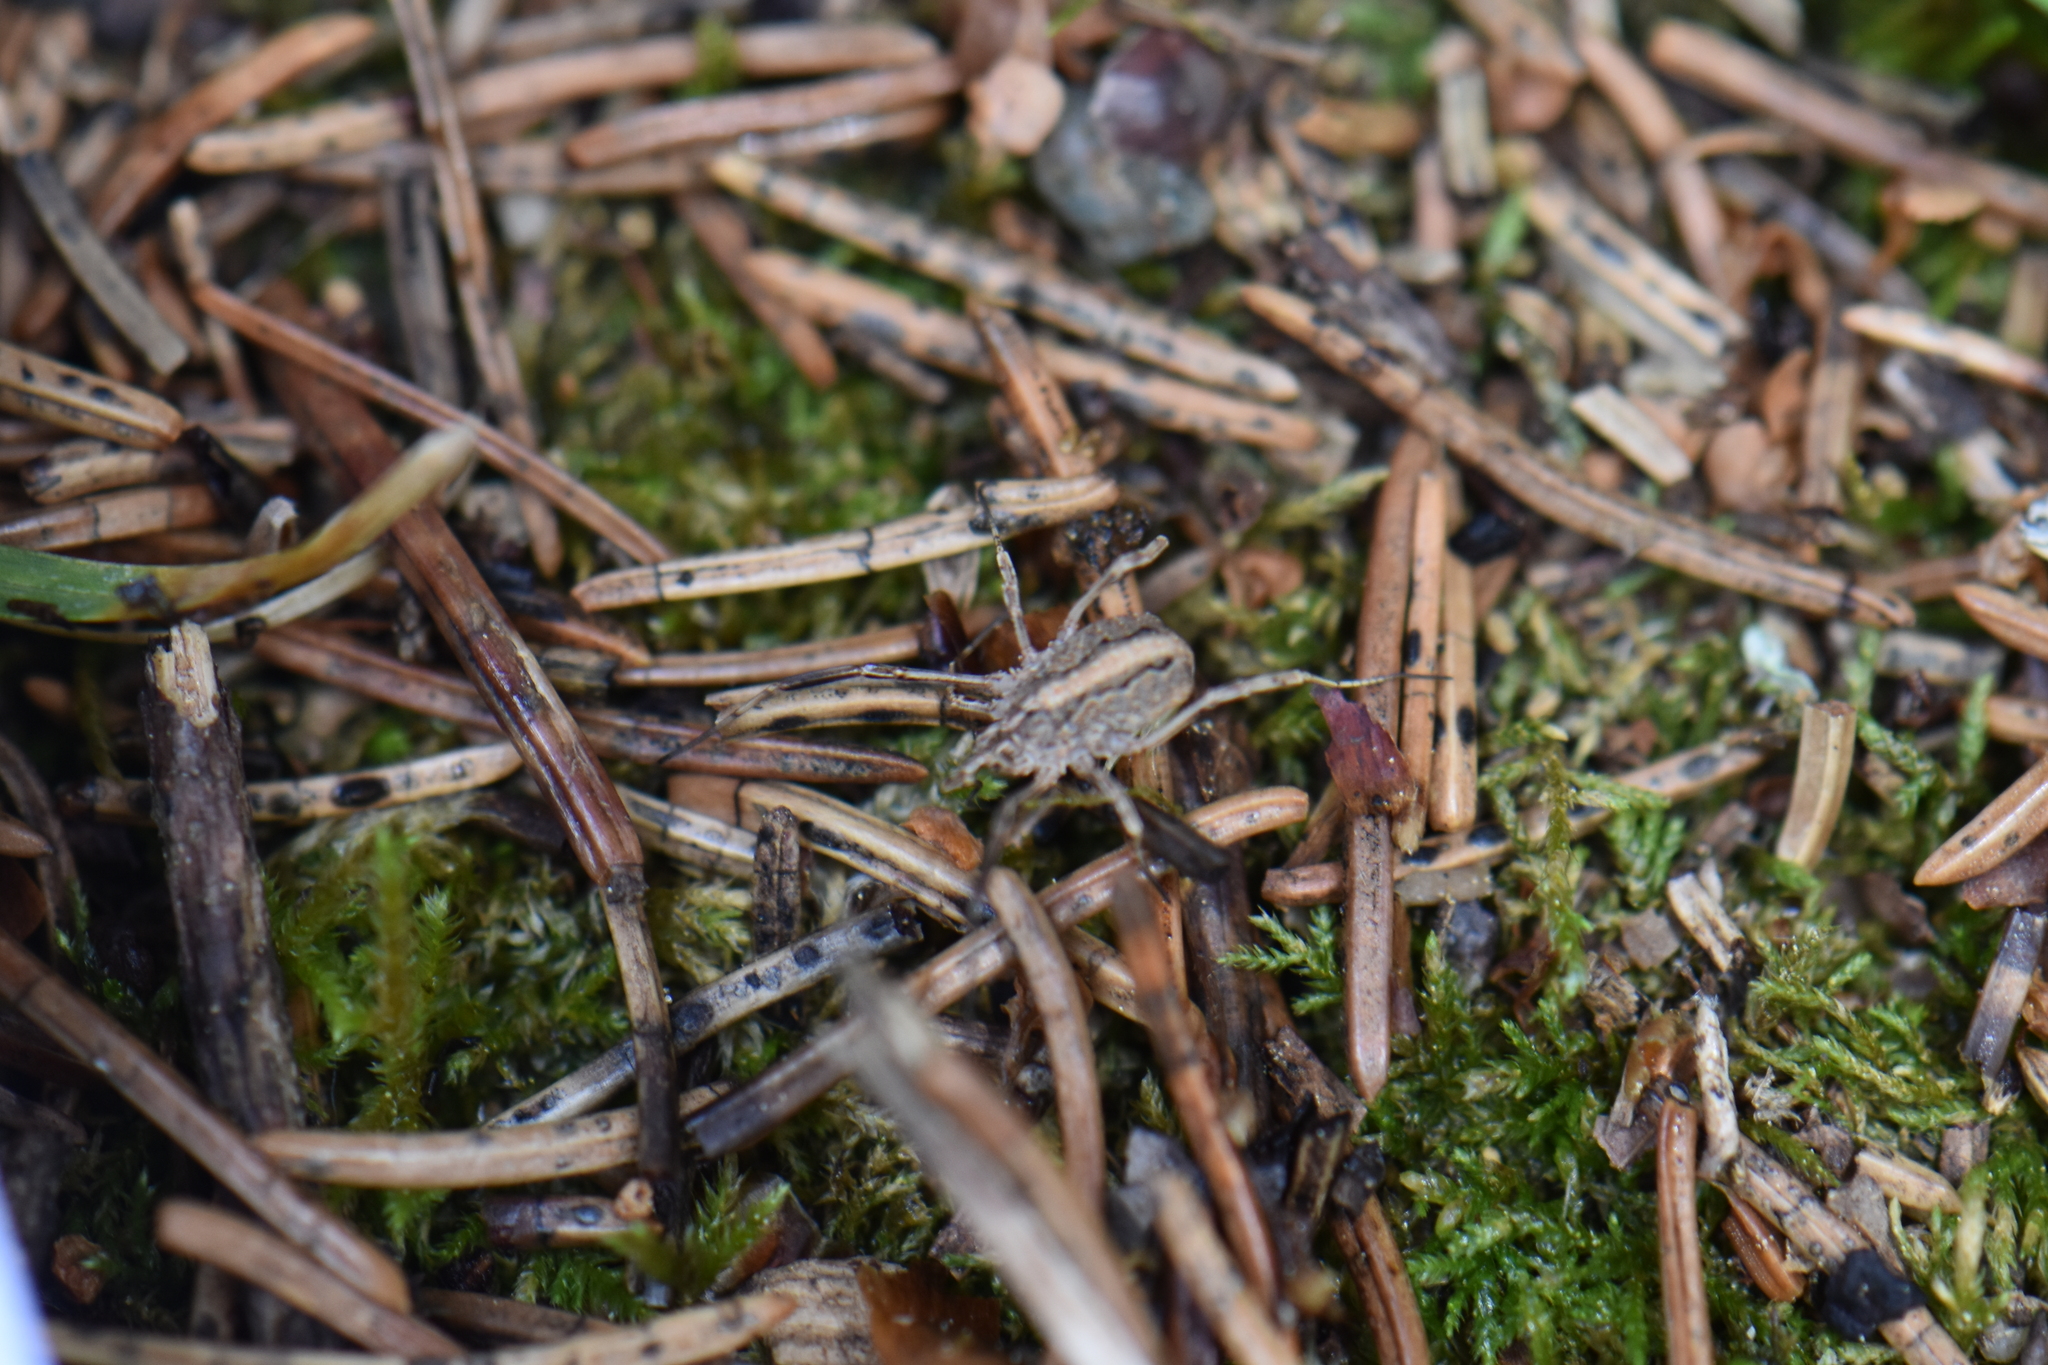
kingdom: Animalia
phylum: Arthropoda
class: Arachnida
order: Opiliones
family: Phalangiidae
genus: Odiellus
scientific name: Odiellus troguloides
